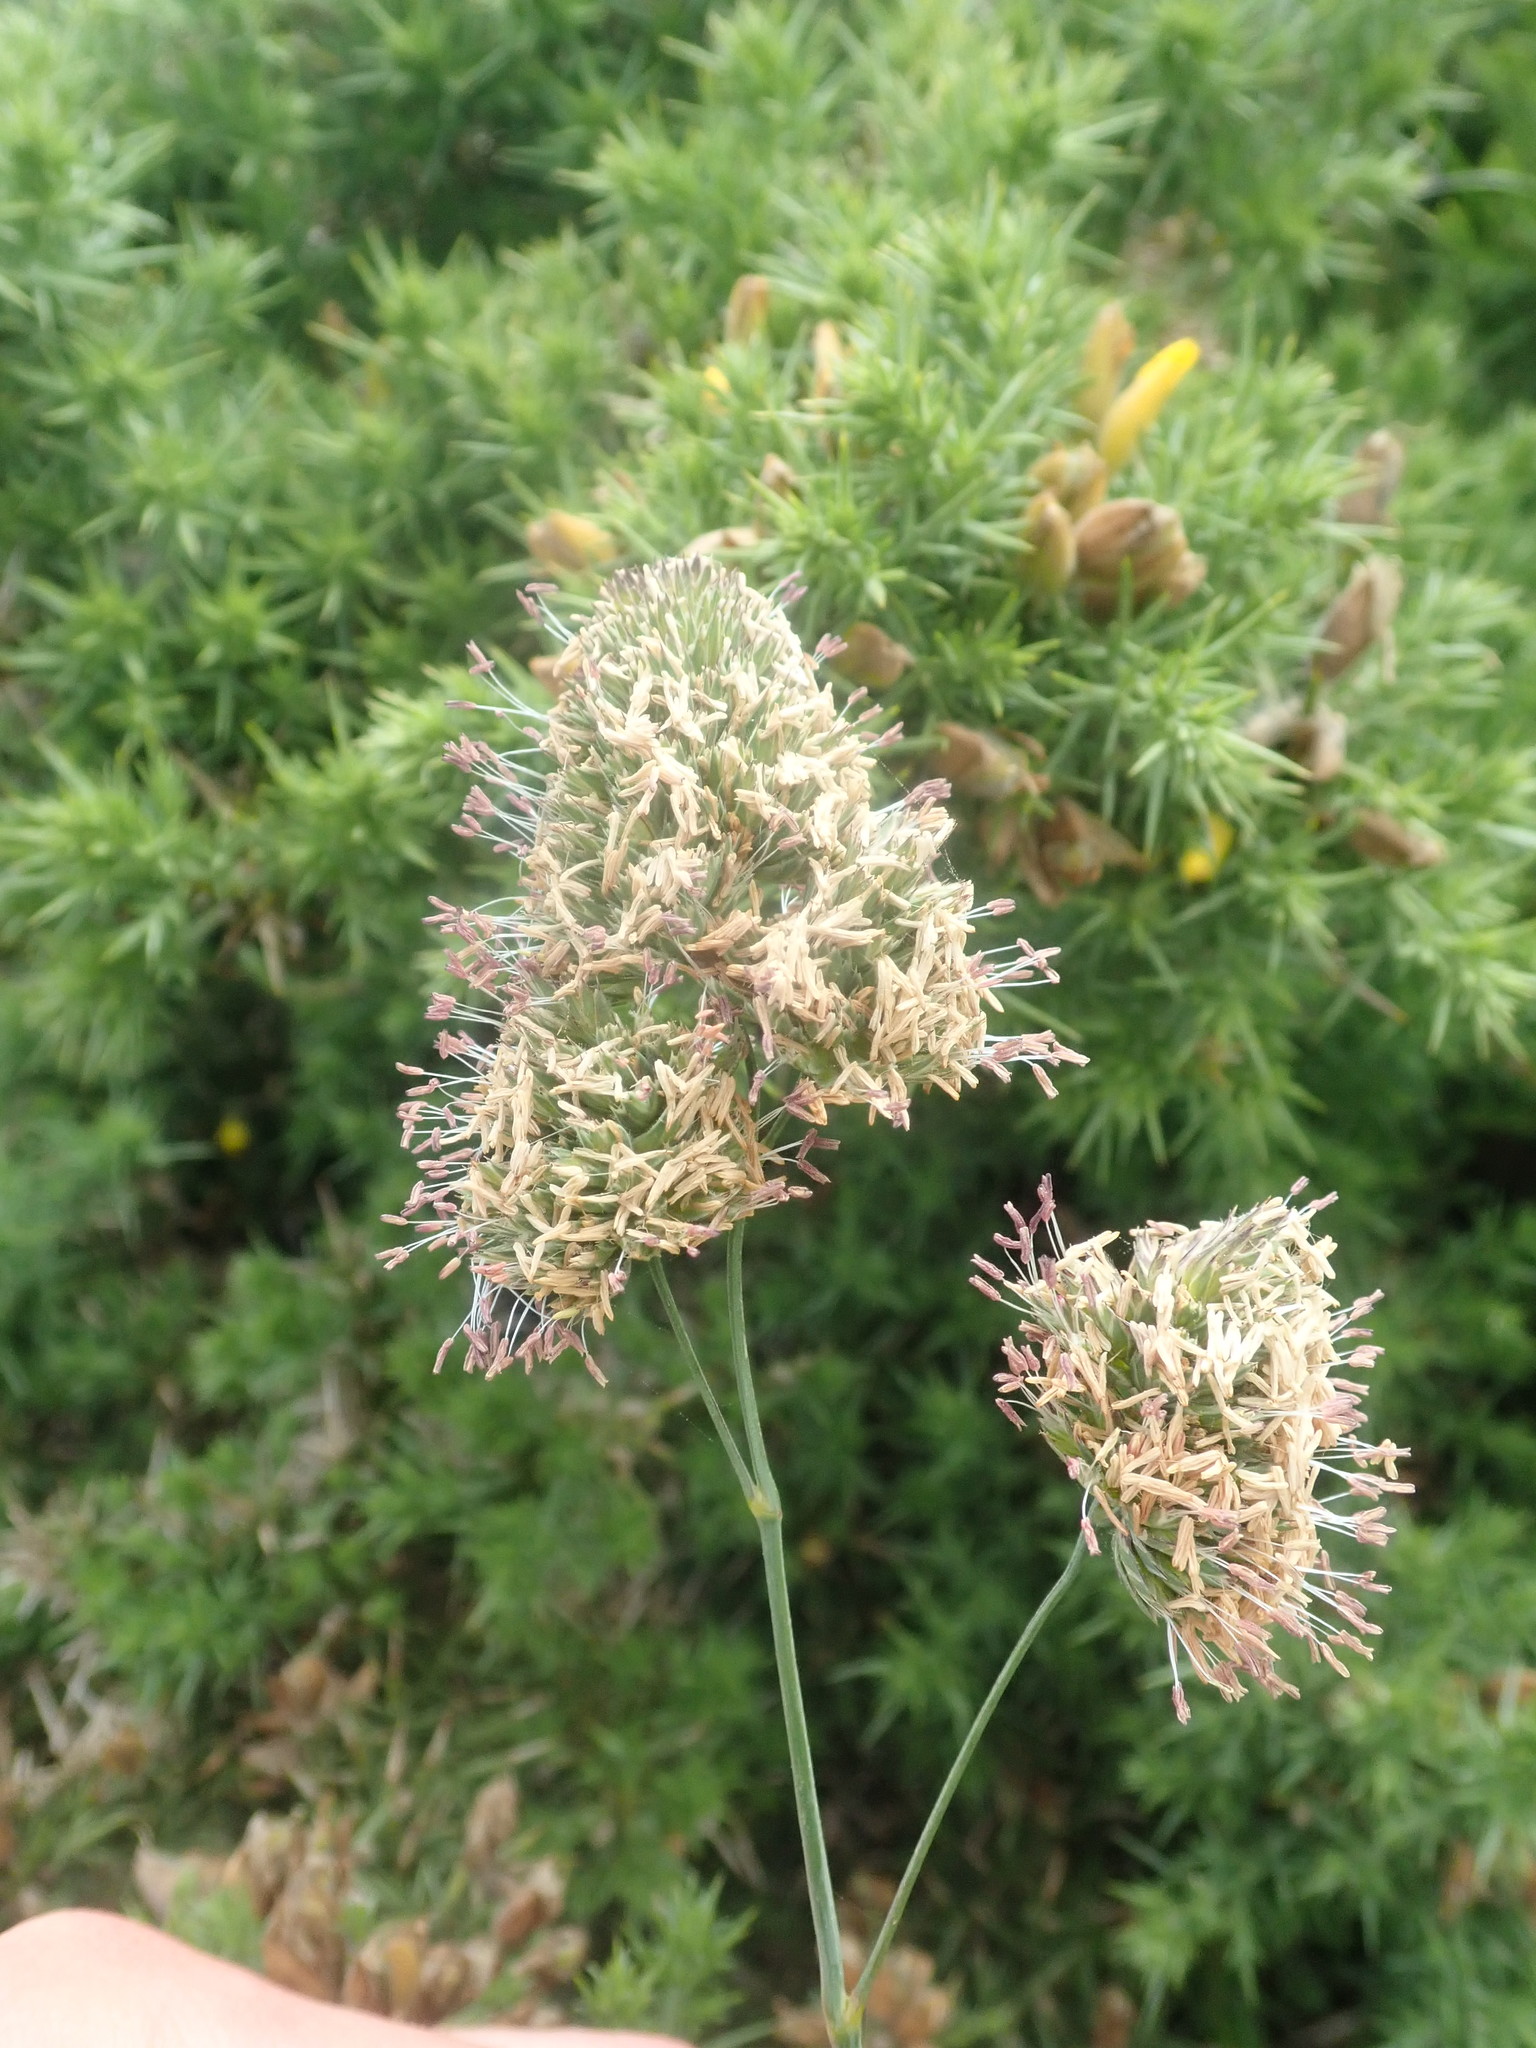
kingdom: Plantae
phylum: Tracheophyta
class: Liliopsida
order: Poales
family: Poaceae
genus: Dactylis
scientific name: Dactylis glomerata
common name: Orchardgrass
